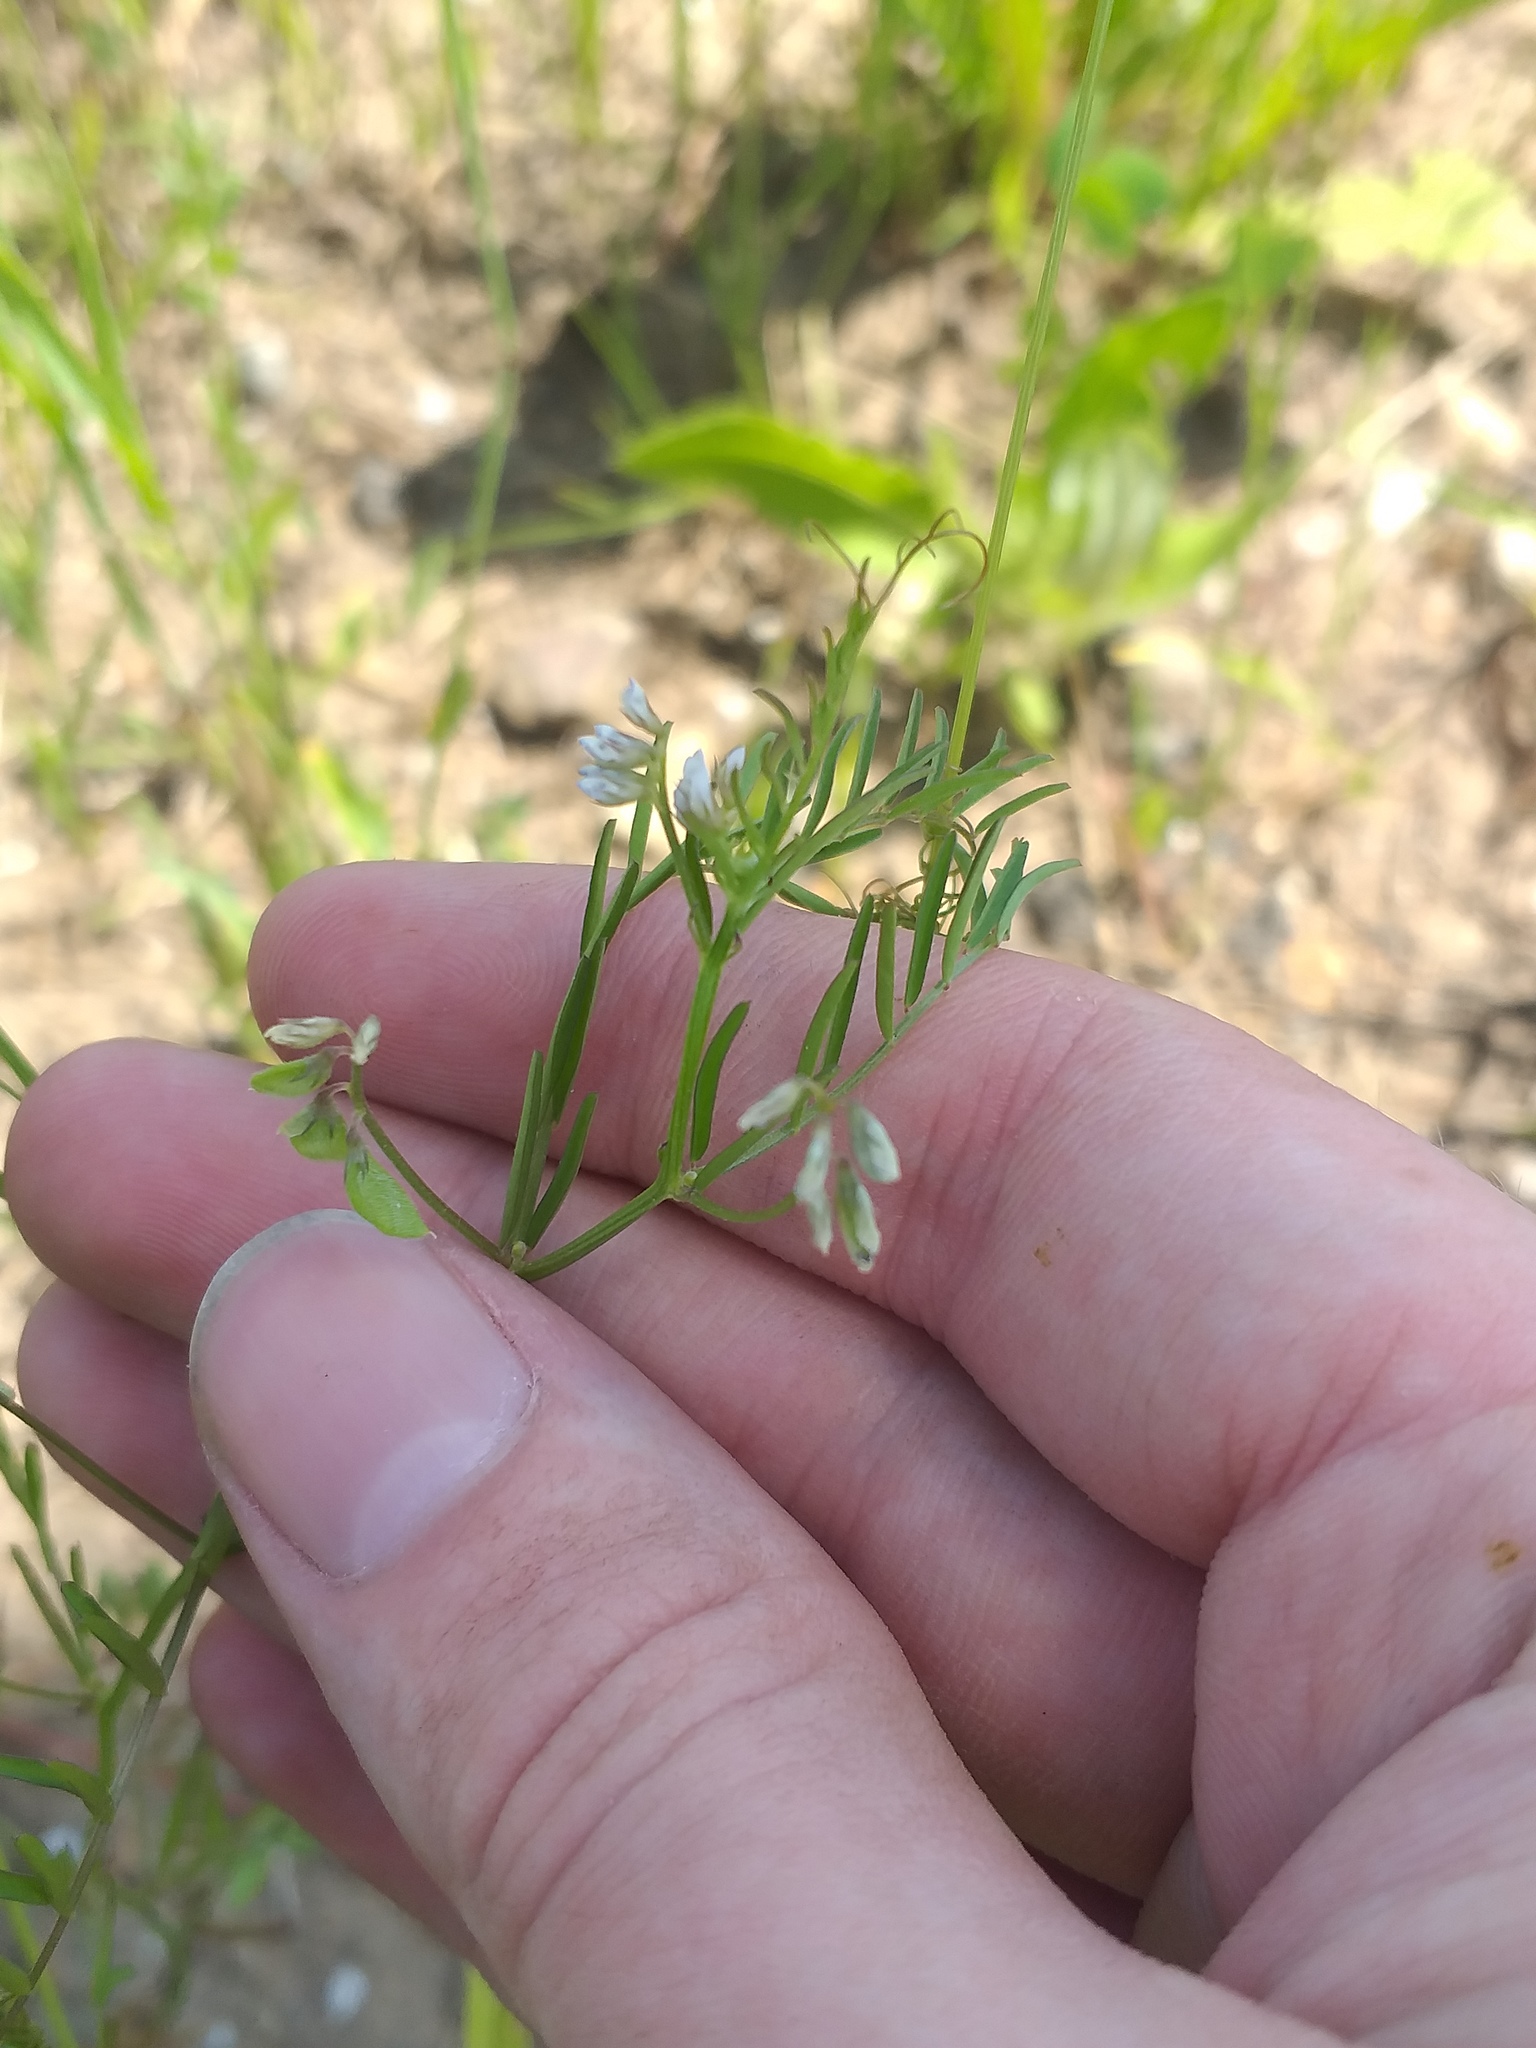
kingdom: Plantae
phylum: Tracheophyta
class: Magnoliopsida
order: Fabales
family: Fabaceae
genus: Vicia
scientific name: Vicia hirsuta
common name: Tiny vetch
